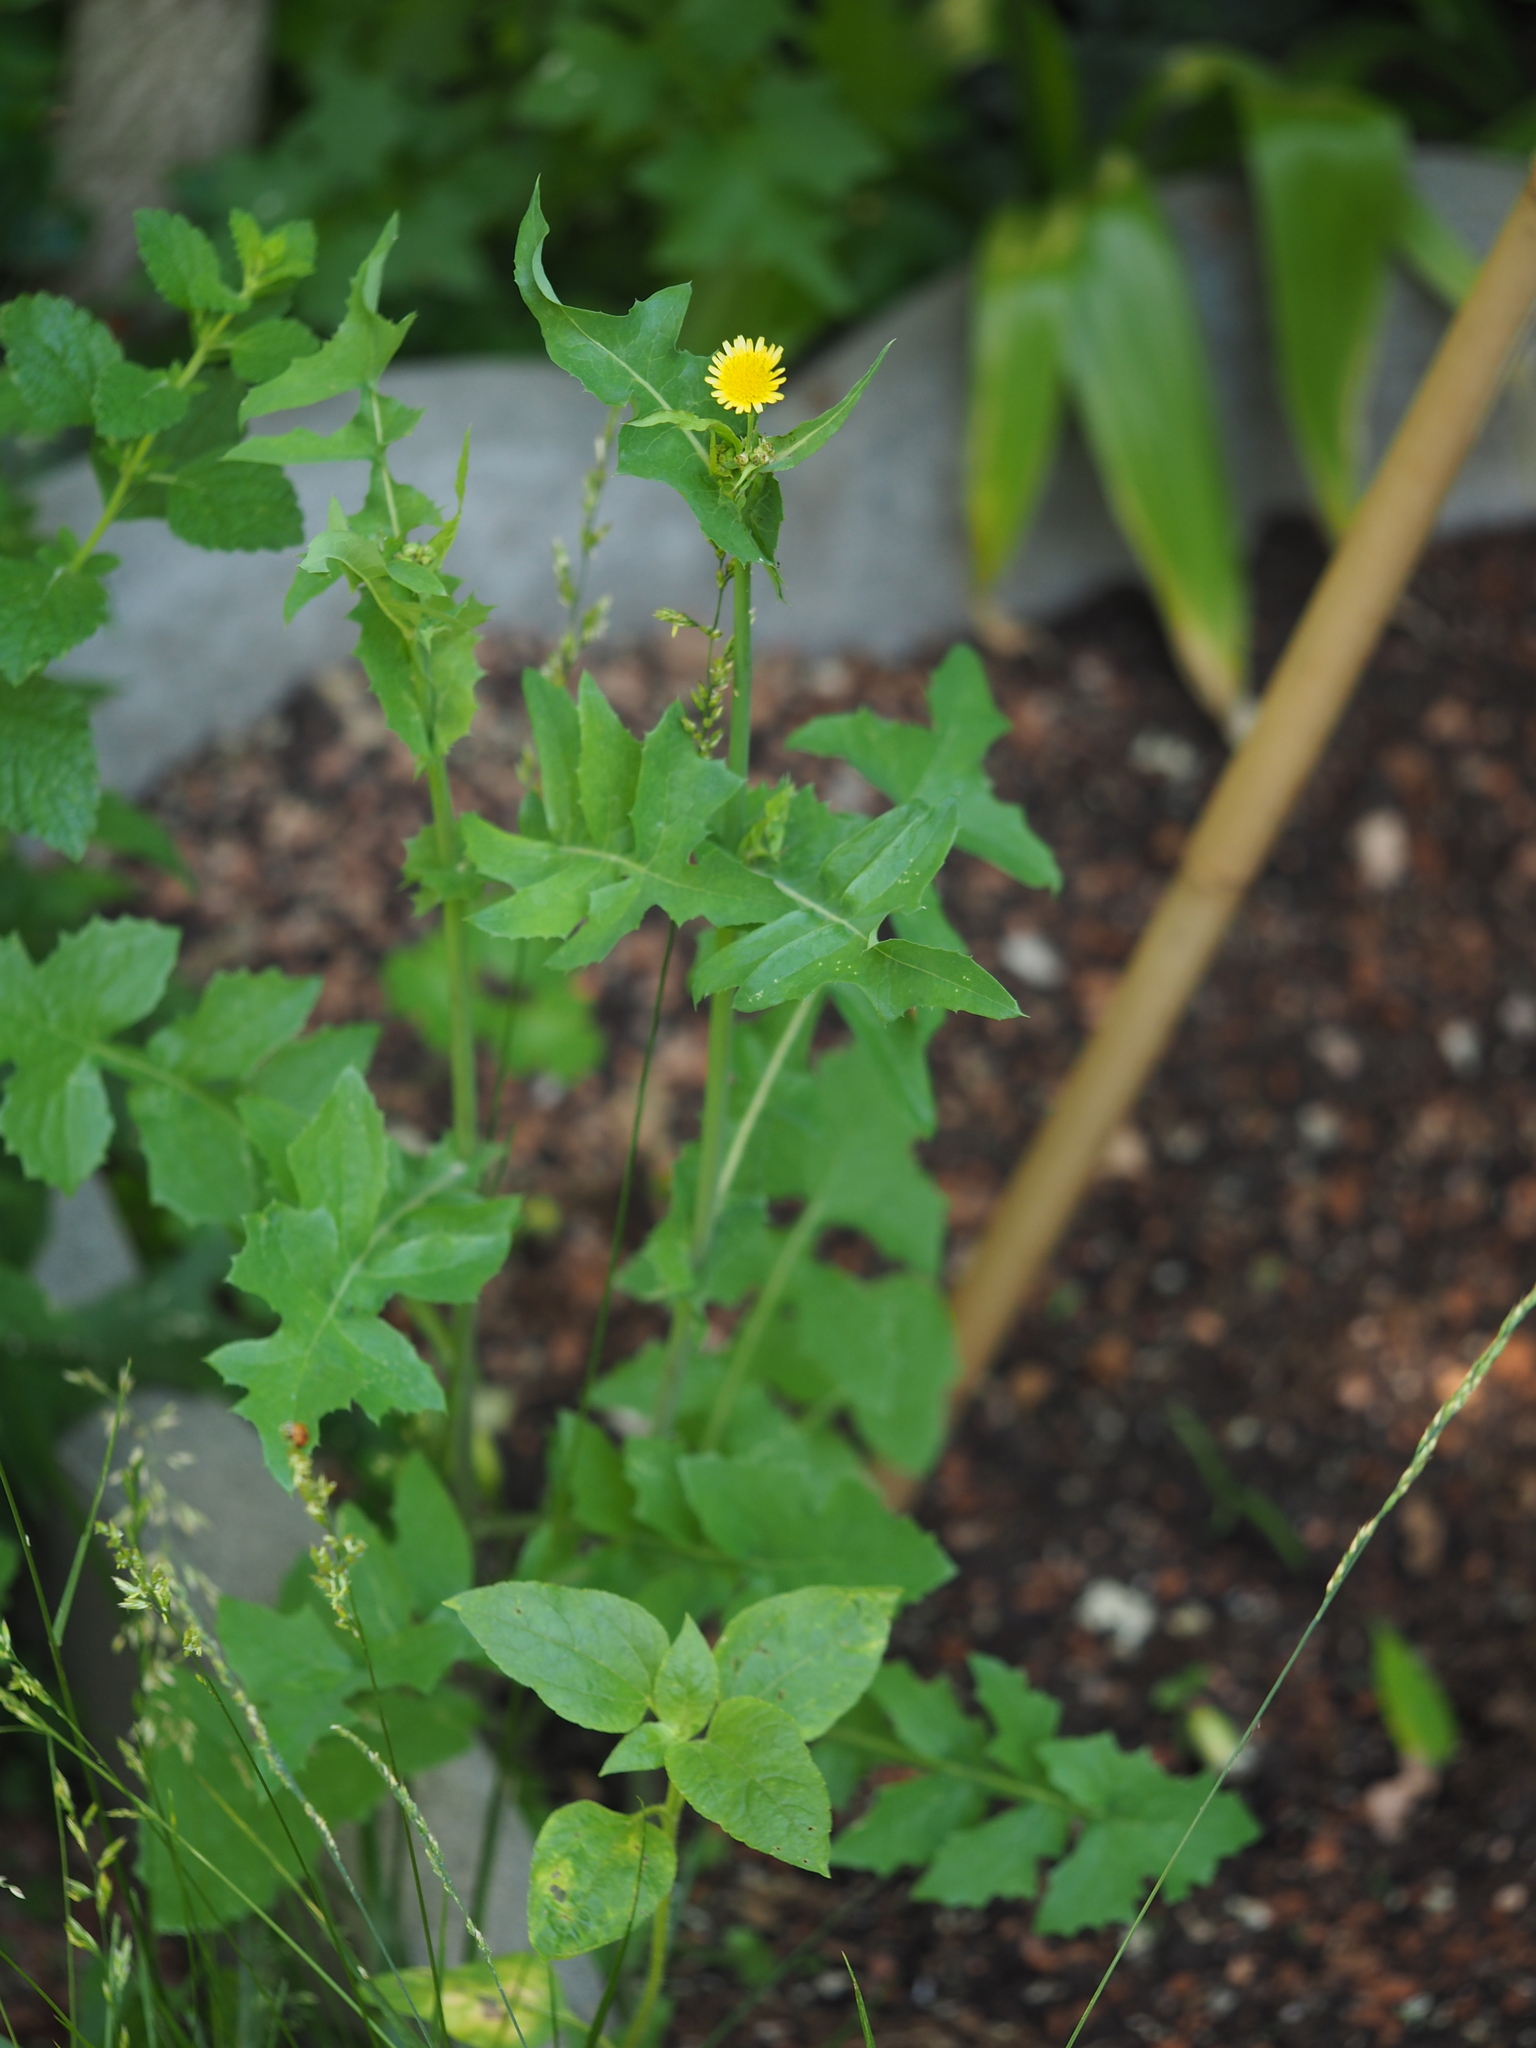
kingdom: Plantae
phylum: Tracheophyta
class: Magnoliopsida
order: Asterales
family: Asteraceae
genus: Sonchus
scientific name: Sonchus oleraceus
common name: Common sowthistle
